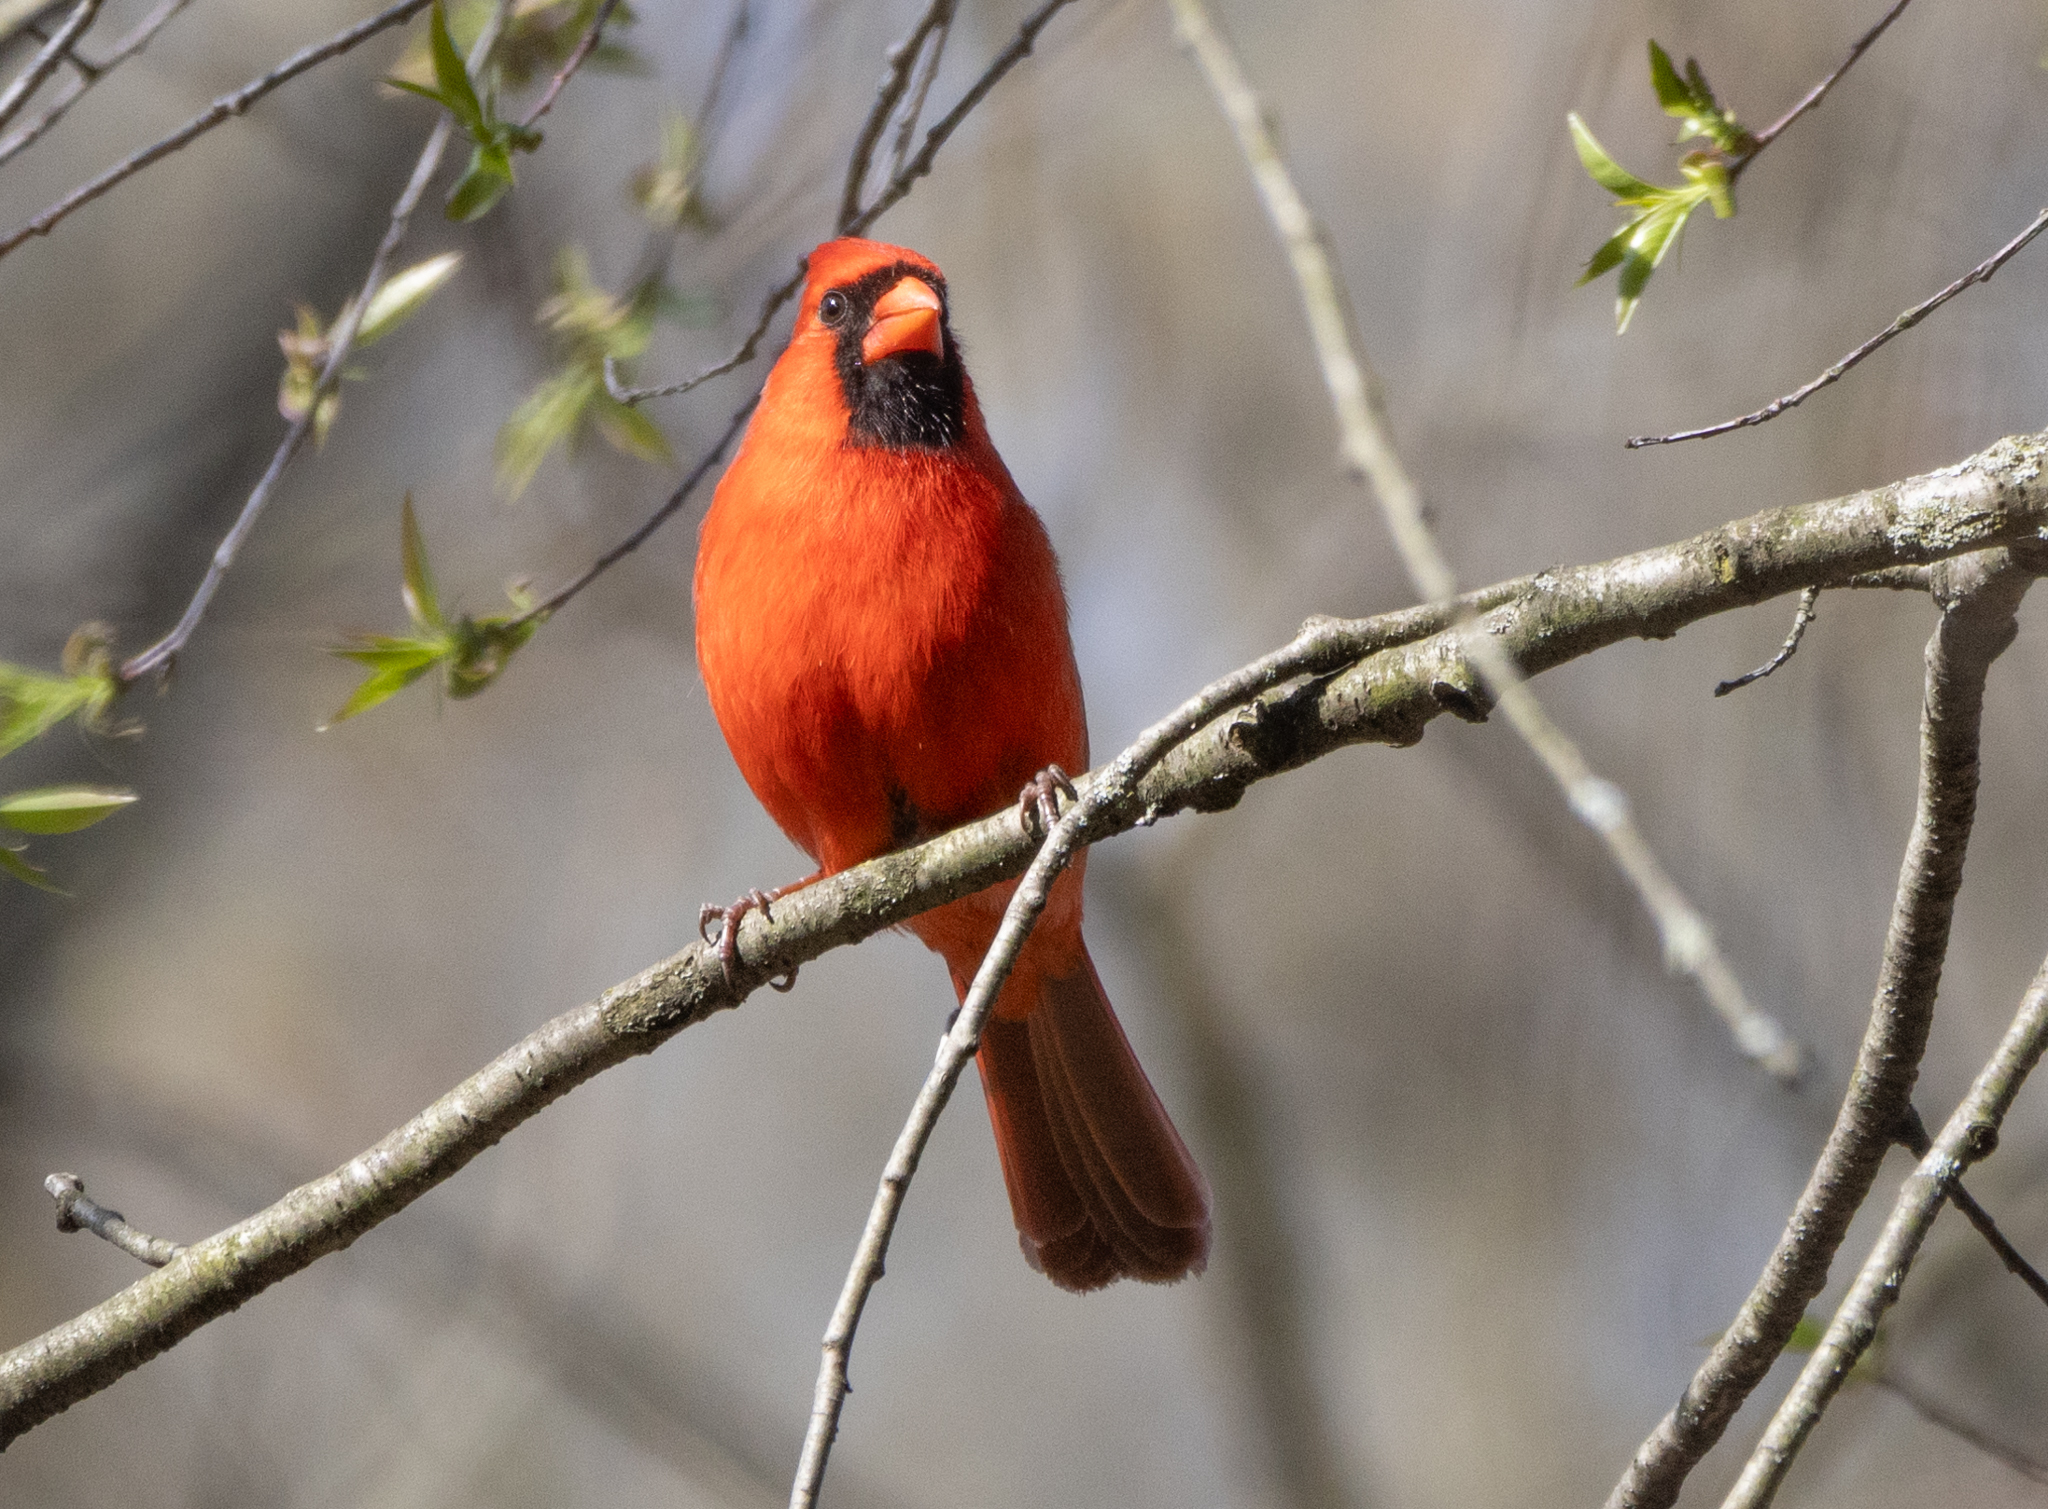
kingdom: Animalia
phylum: Chordata
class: Aves
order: Passeriformes
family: Cardinalidae
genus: Cardinalis
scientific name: Cardinalis cardinalis
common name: Northern cardinal
